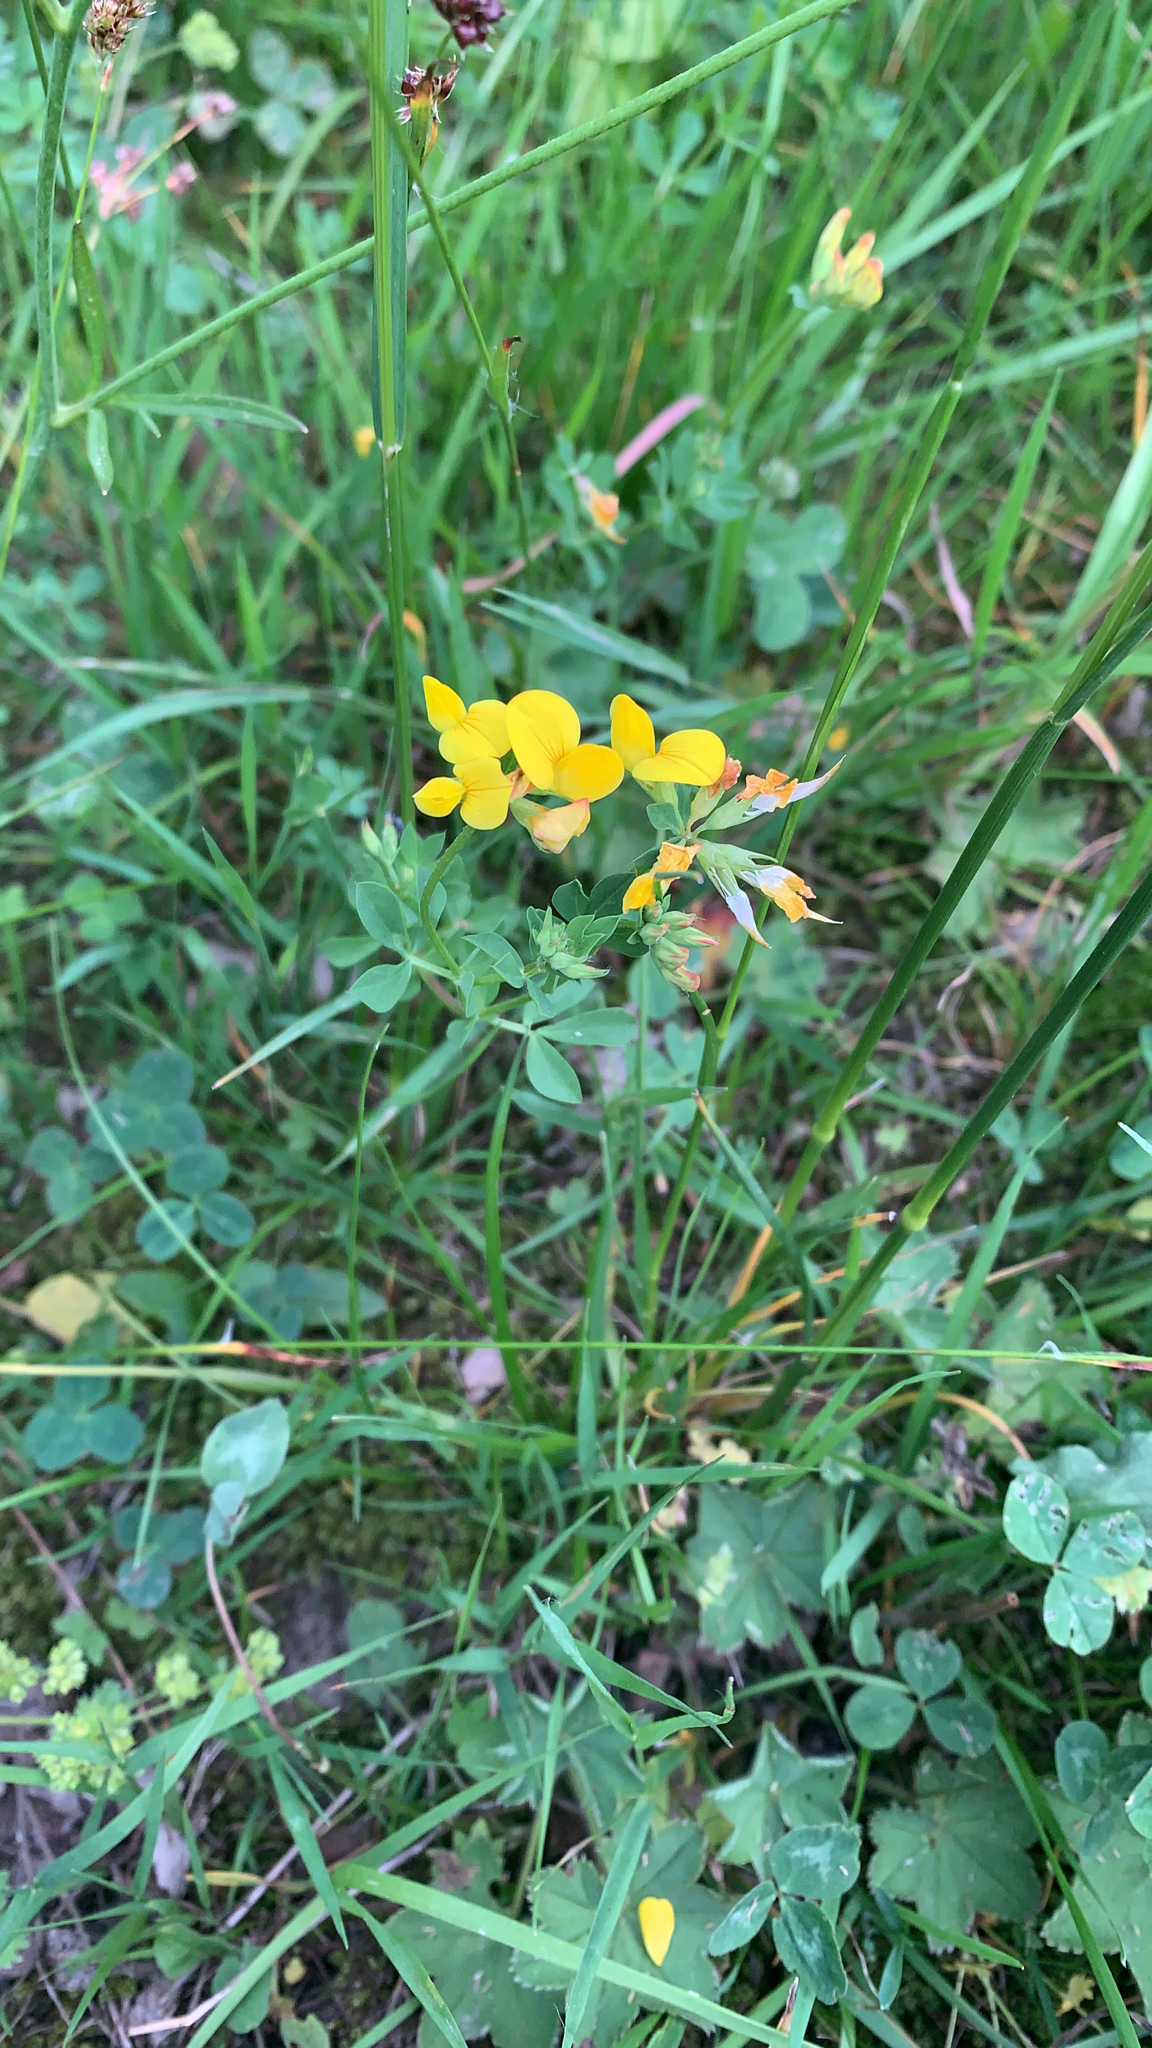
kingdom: Plantae
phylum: Tracheophyta
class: Magnoliopsida
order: Fabales
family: Fabaceae
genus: Lotus
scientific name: Lotus corniculatus
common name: Common bird's-foot-trefoil
